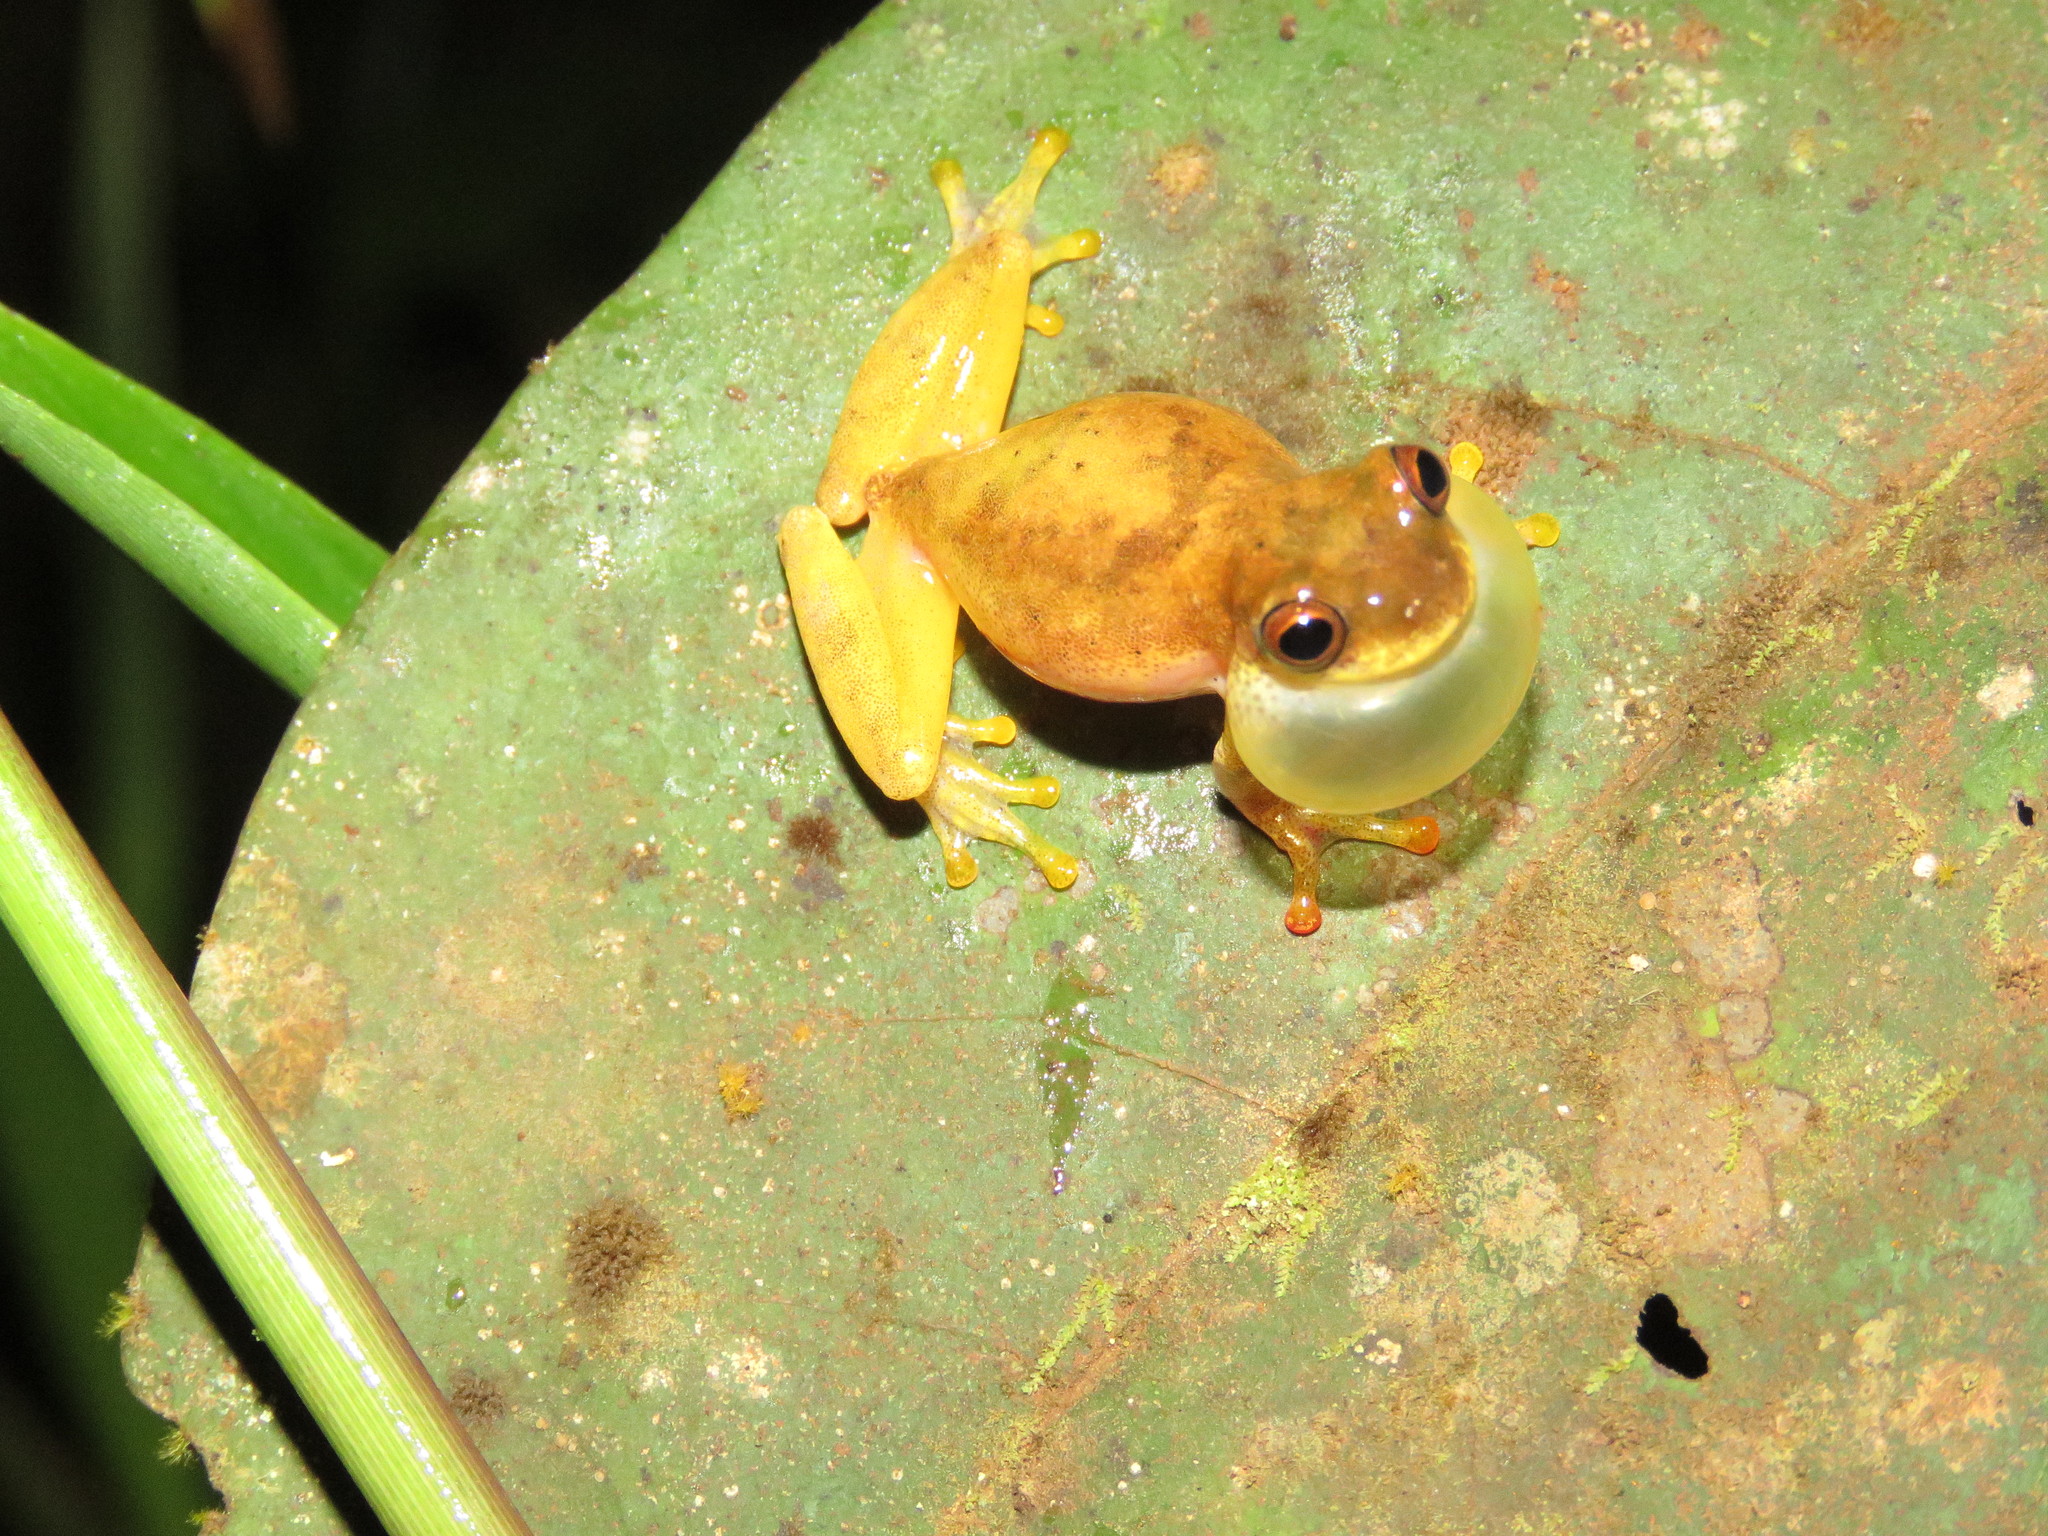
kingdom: Animalia
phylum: Chordata
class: Amphibia
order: Anura
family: Hylidae
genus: Dendropsophus
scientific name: Dendropsophus delarivai
